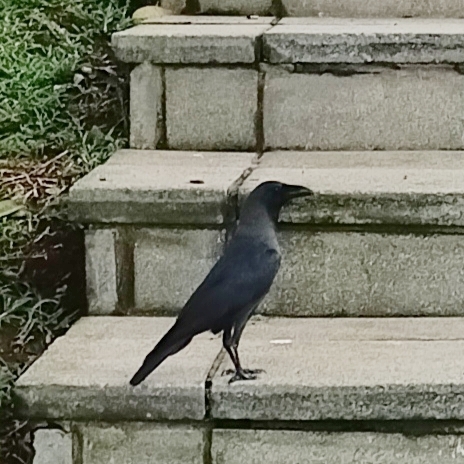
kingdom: Animalia
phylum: Chordata
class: Aves
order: Passeriformes
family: Corvidae
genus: Corvus
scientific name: Corvus splendens
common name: House crow
